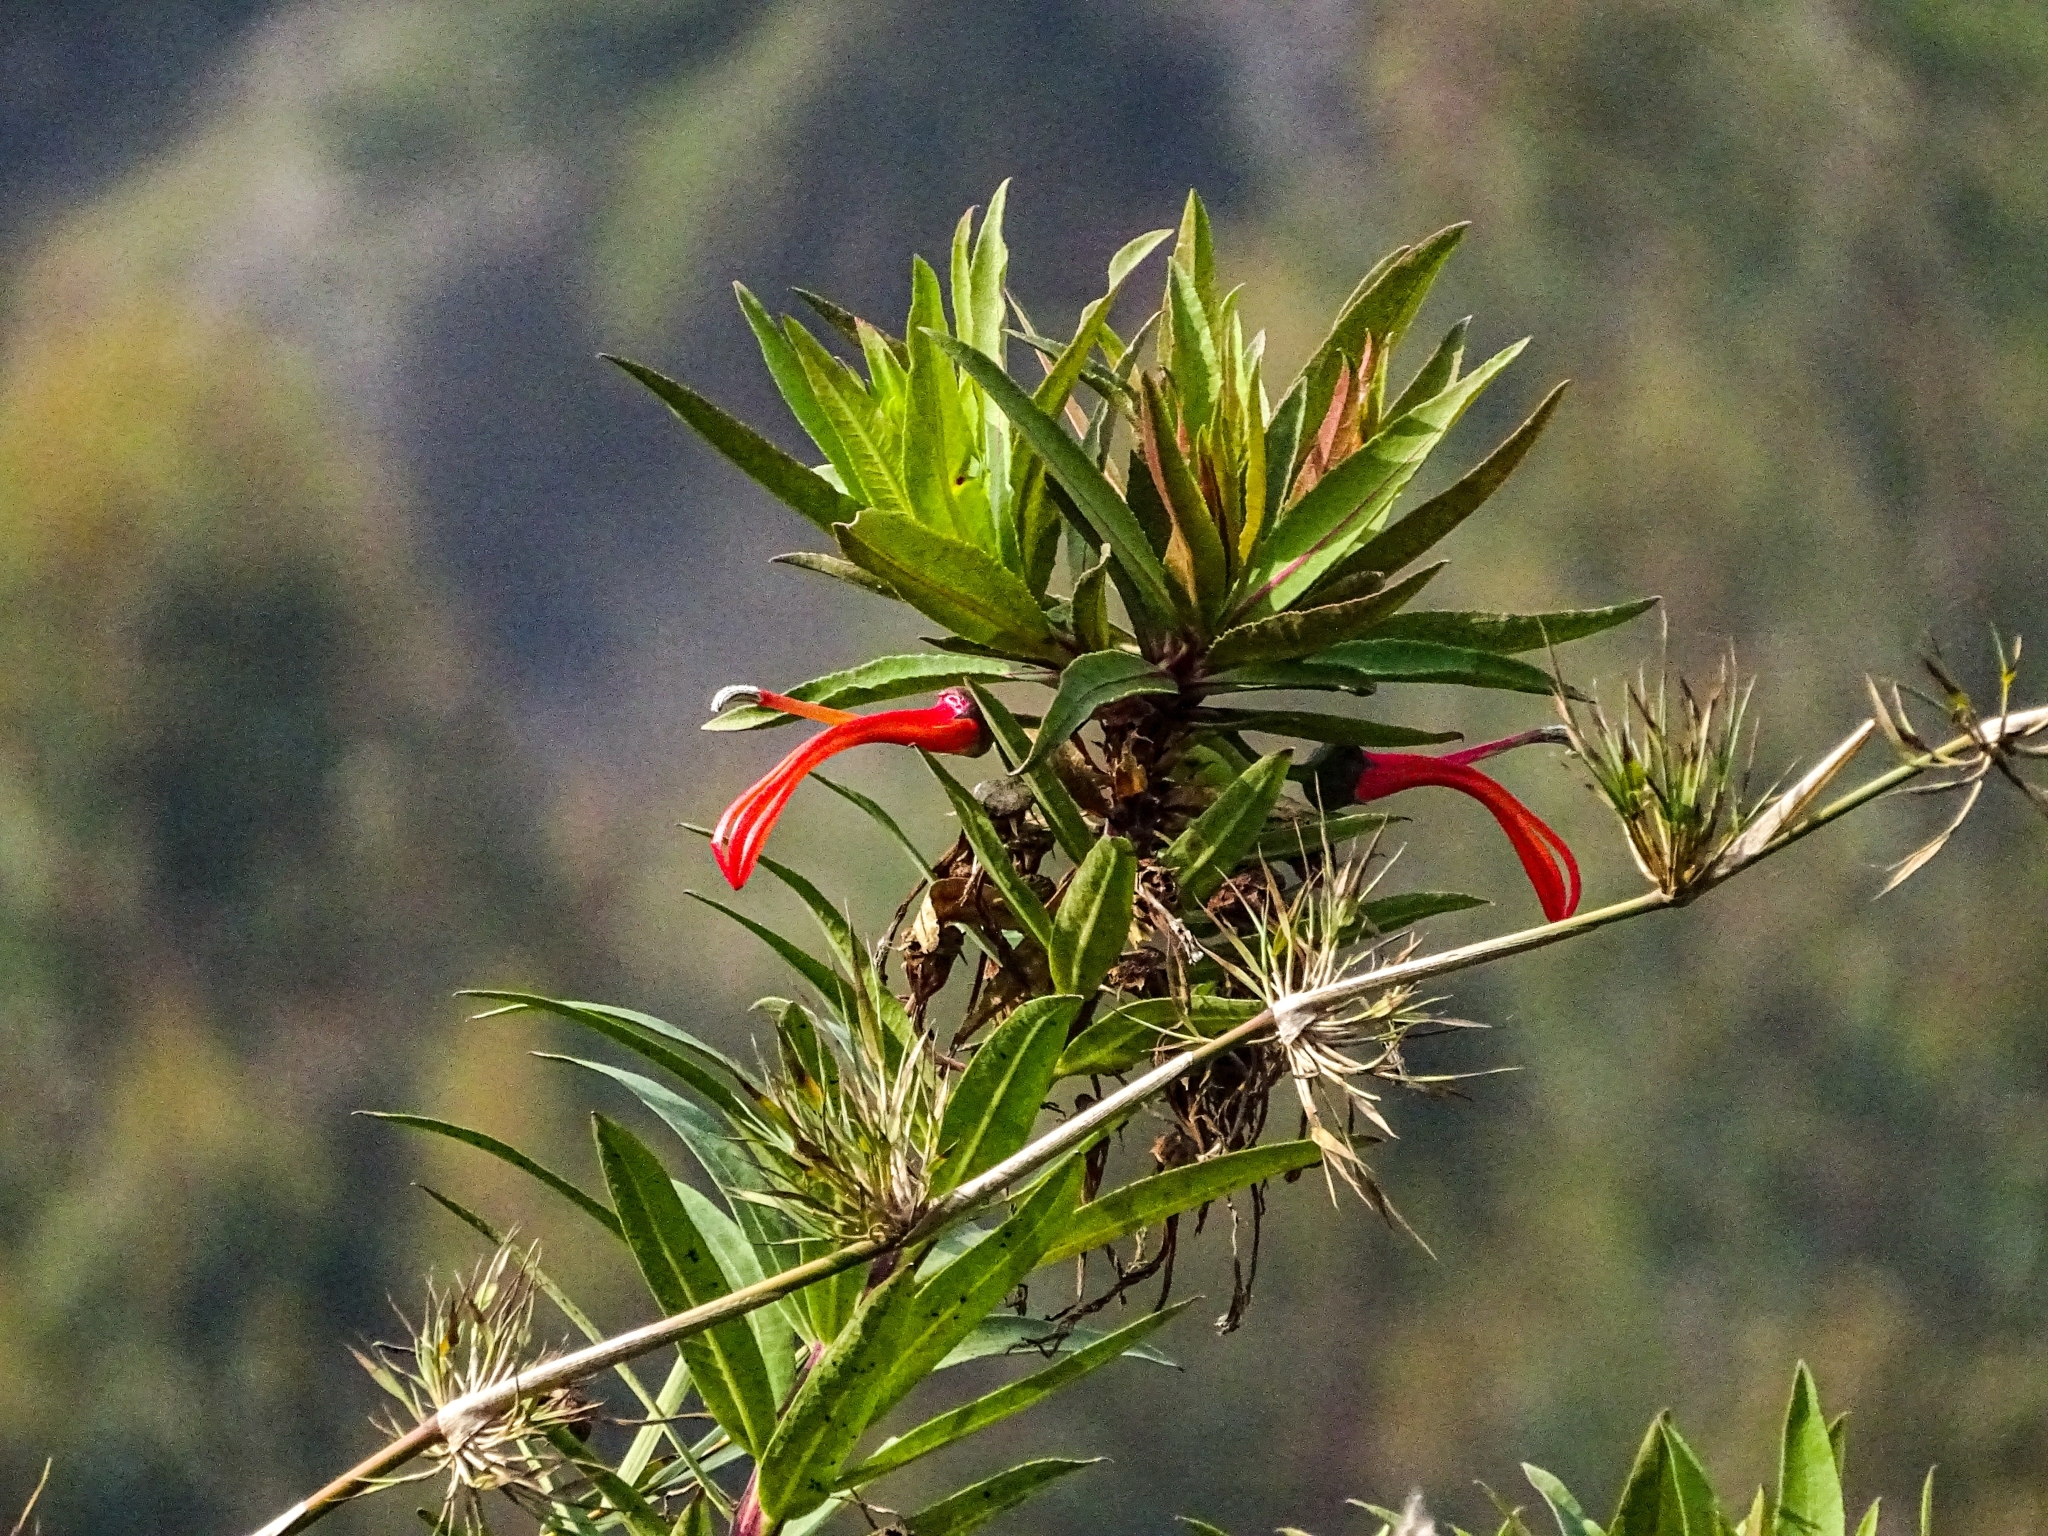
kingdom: Plantae
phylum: Tracheophyta
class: Magnoliopsida
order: Asterales
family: Campanulaceae
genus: Lobelia
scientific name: Lobelia excelsa
